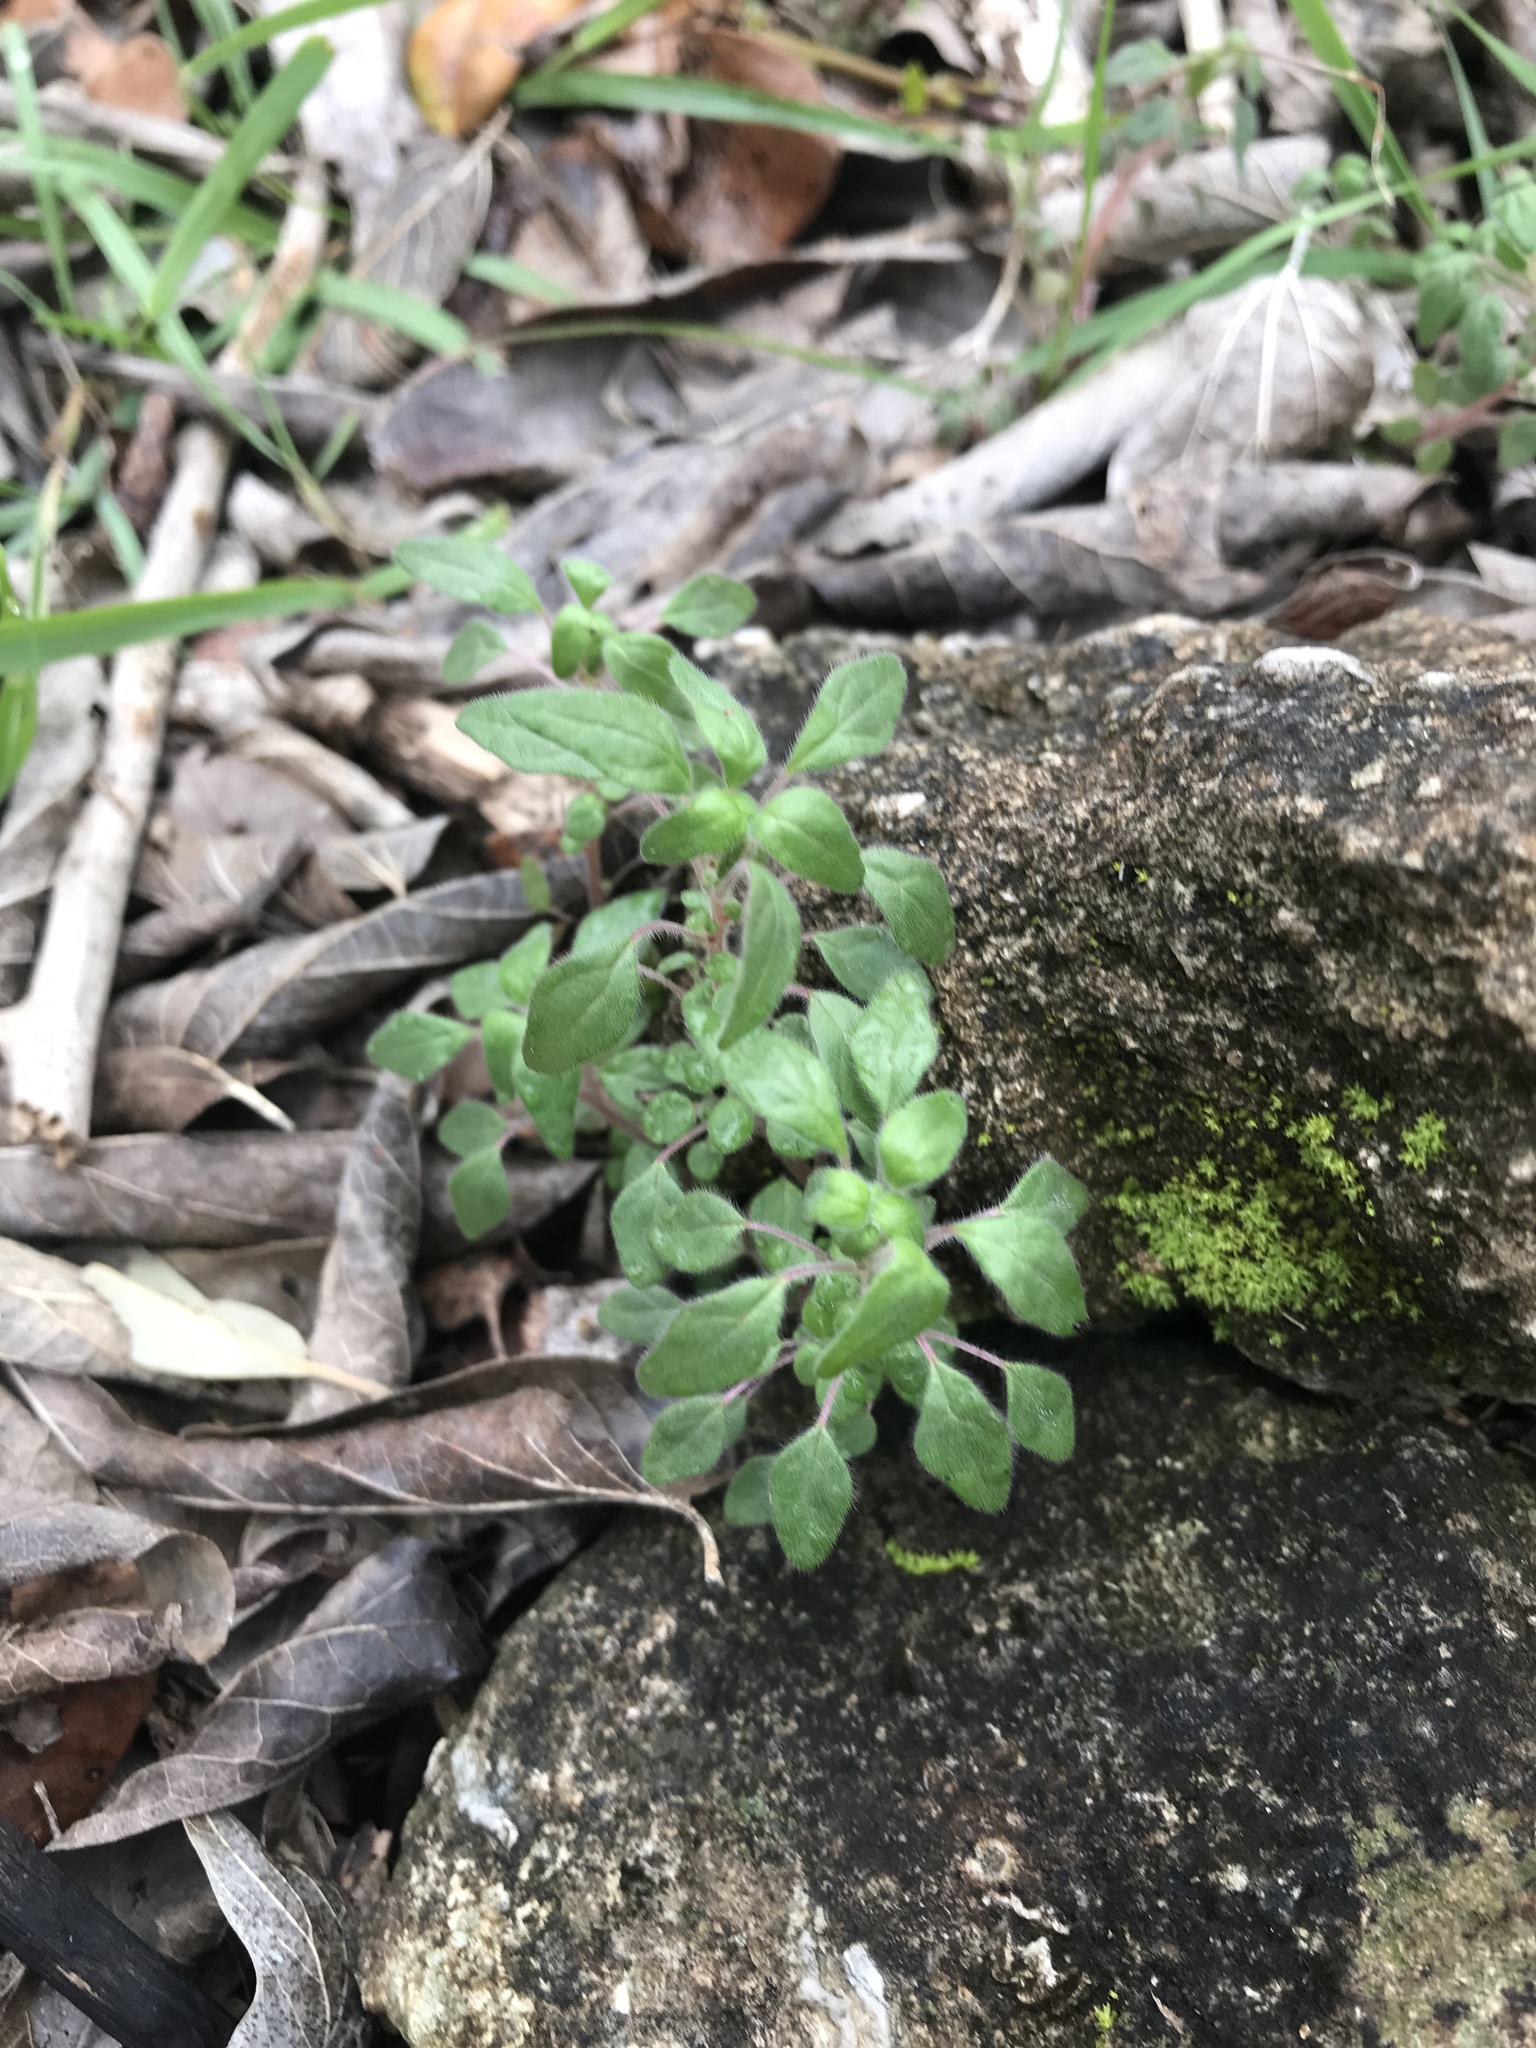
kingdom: Plantae
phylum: Tracheophyta
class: Magnoliopsida
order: Rosales
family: Urticaceae
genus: Parietaria
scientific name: Parietaria pensylvanica
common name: Pennsylvania pellitory
